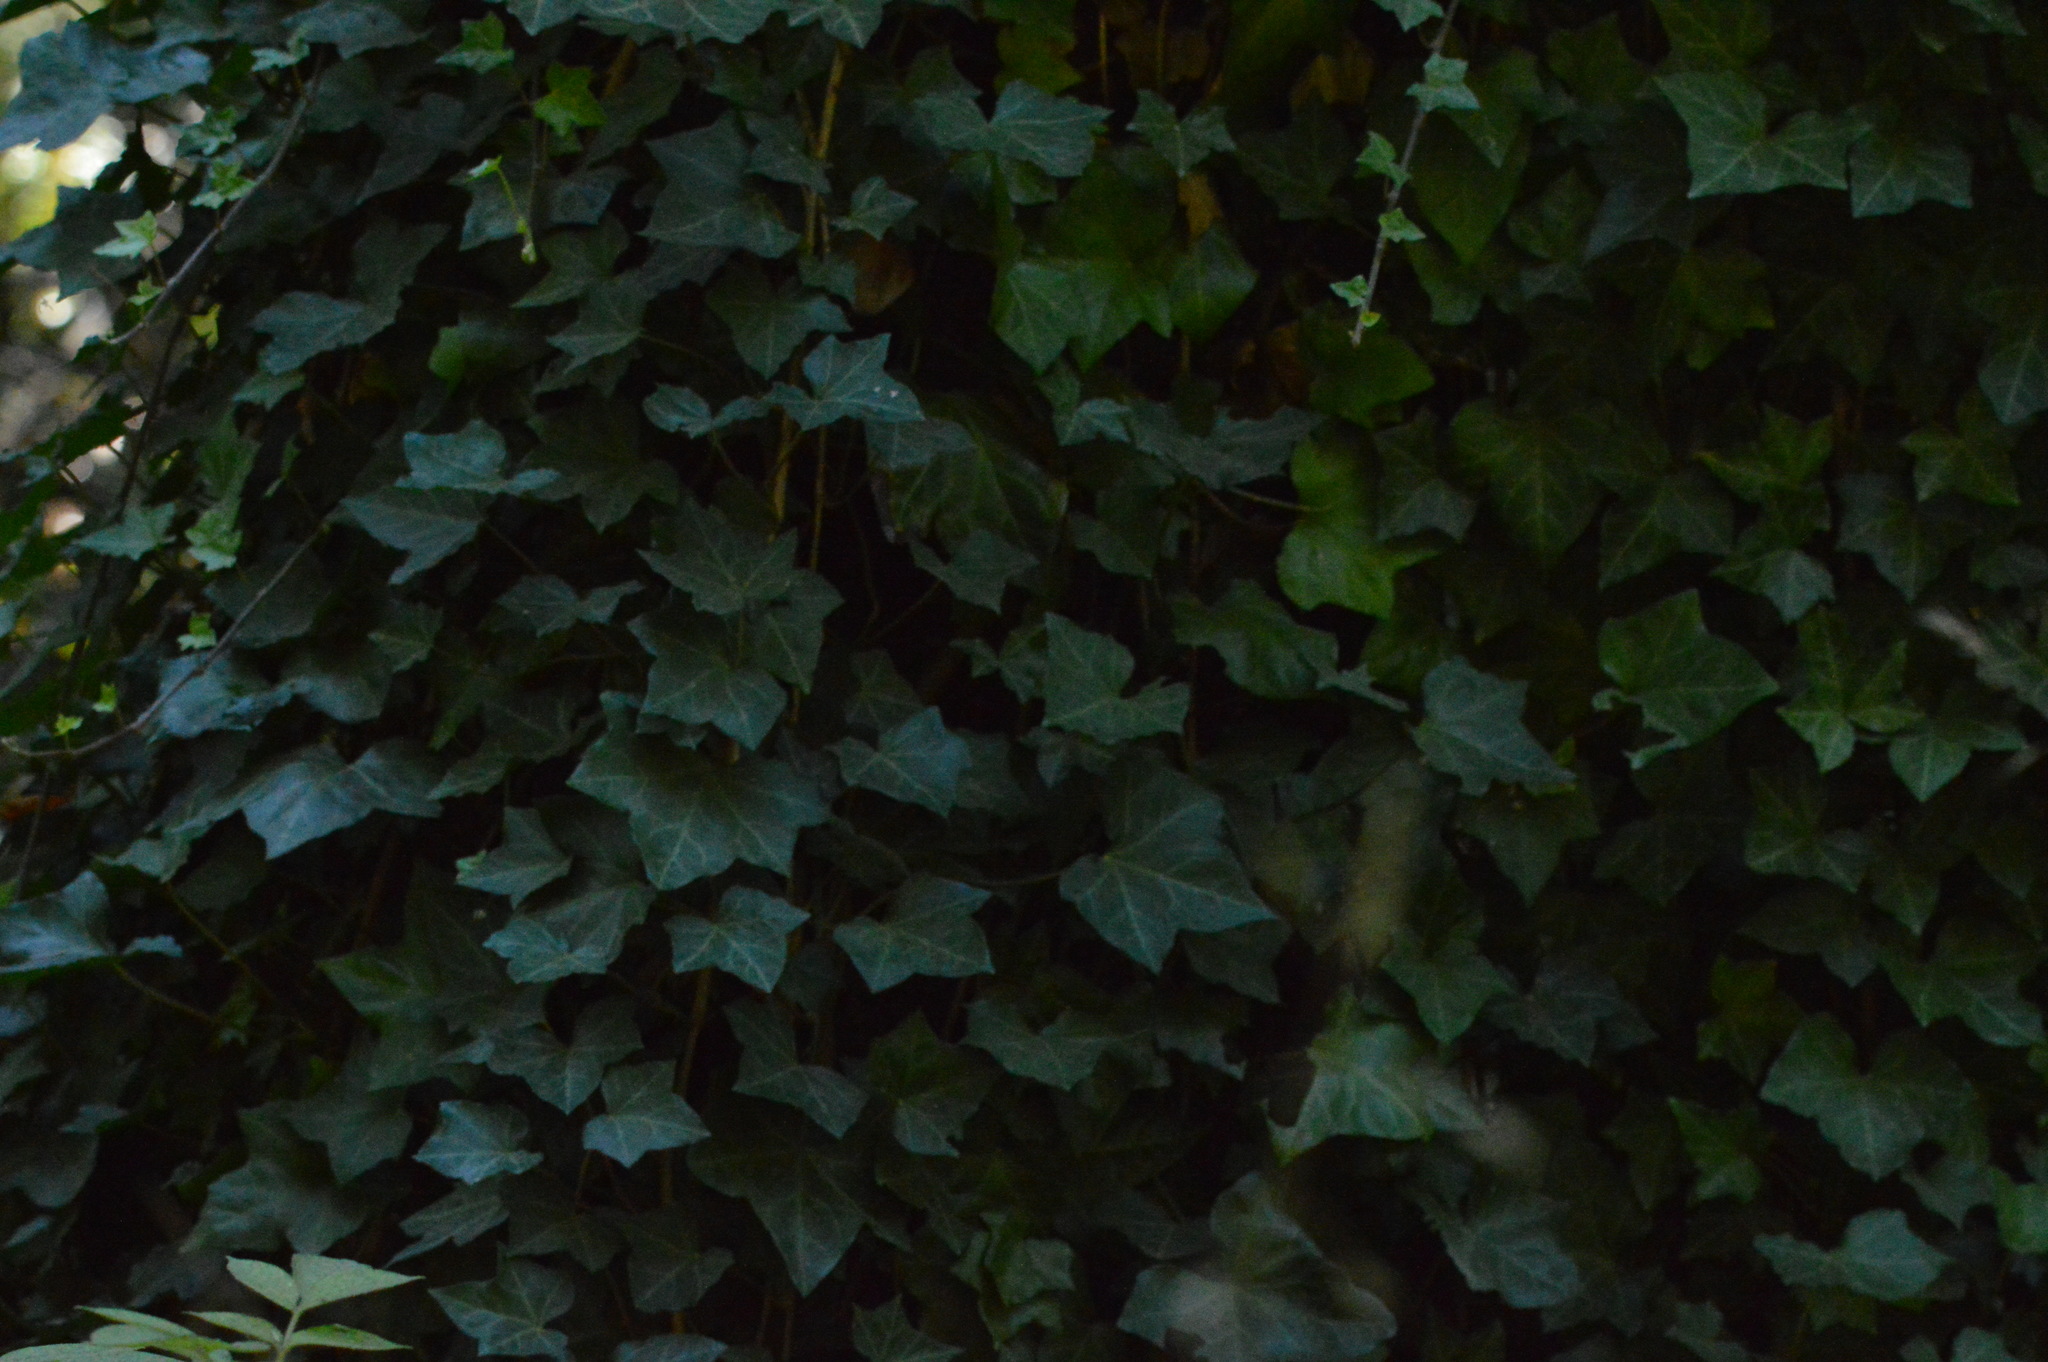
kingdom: Plantae
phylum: Tracheophyta
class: Magnoliopsida
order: Apiales
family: Araliaceae
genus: Hedera
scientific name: Hedera helix
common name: Ivy
